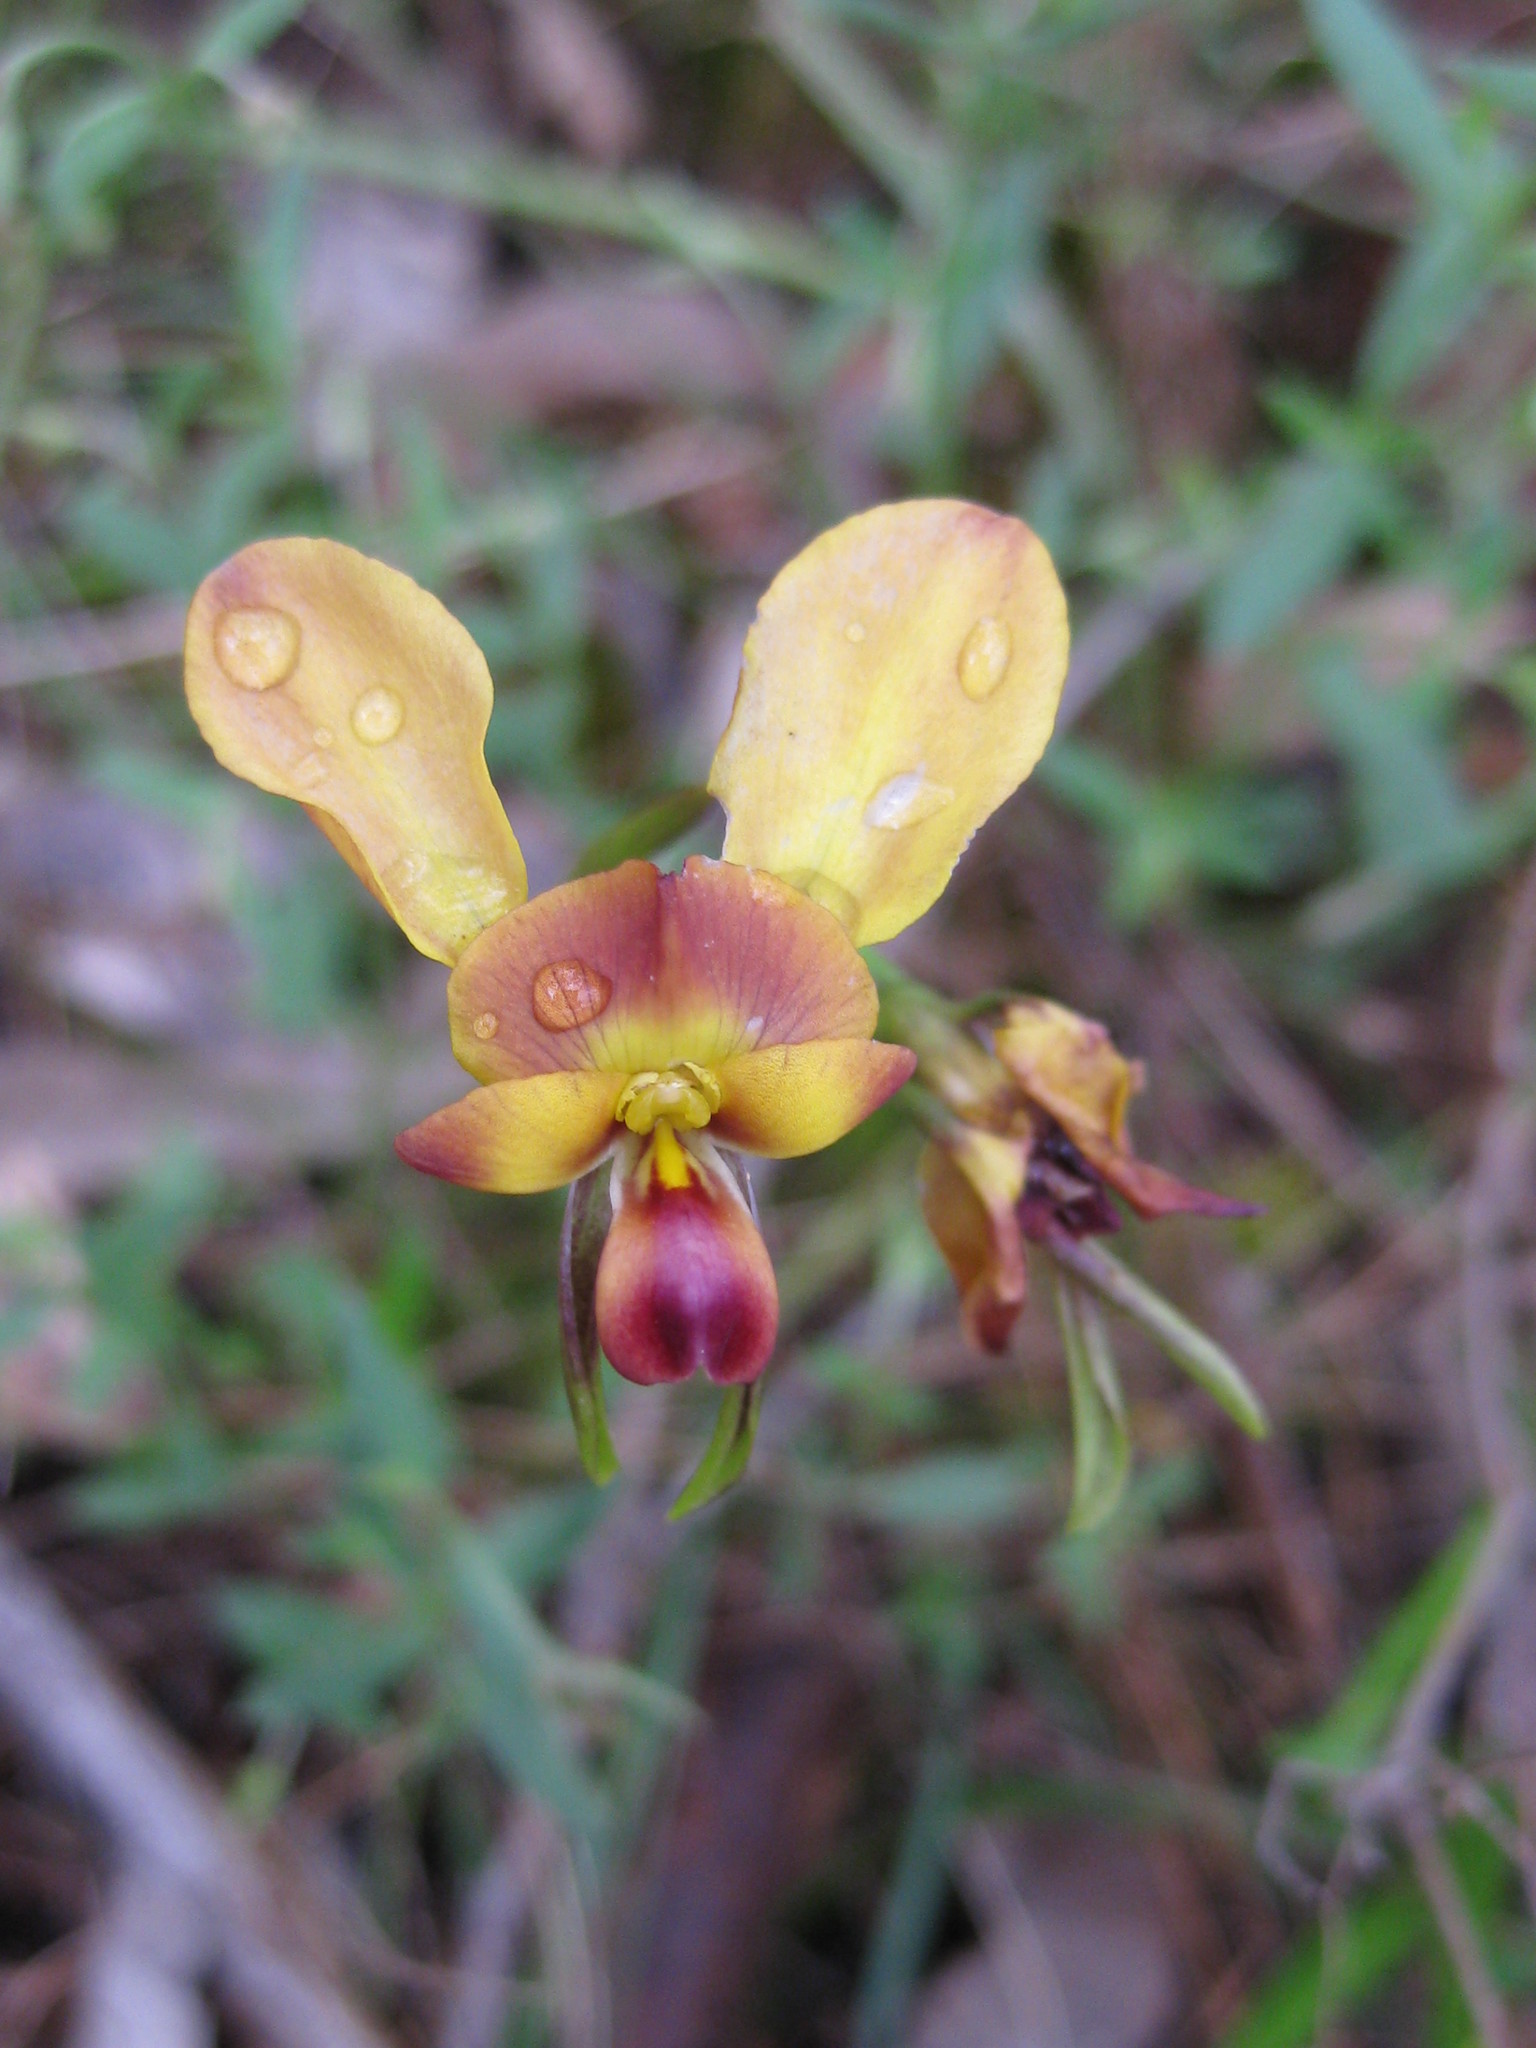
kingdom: Plantae
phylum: Tracheophyta
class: Liliopsida
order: Asparagales
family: Orchidaceae
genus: Diuris
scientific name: Diuris orientis
